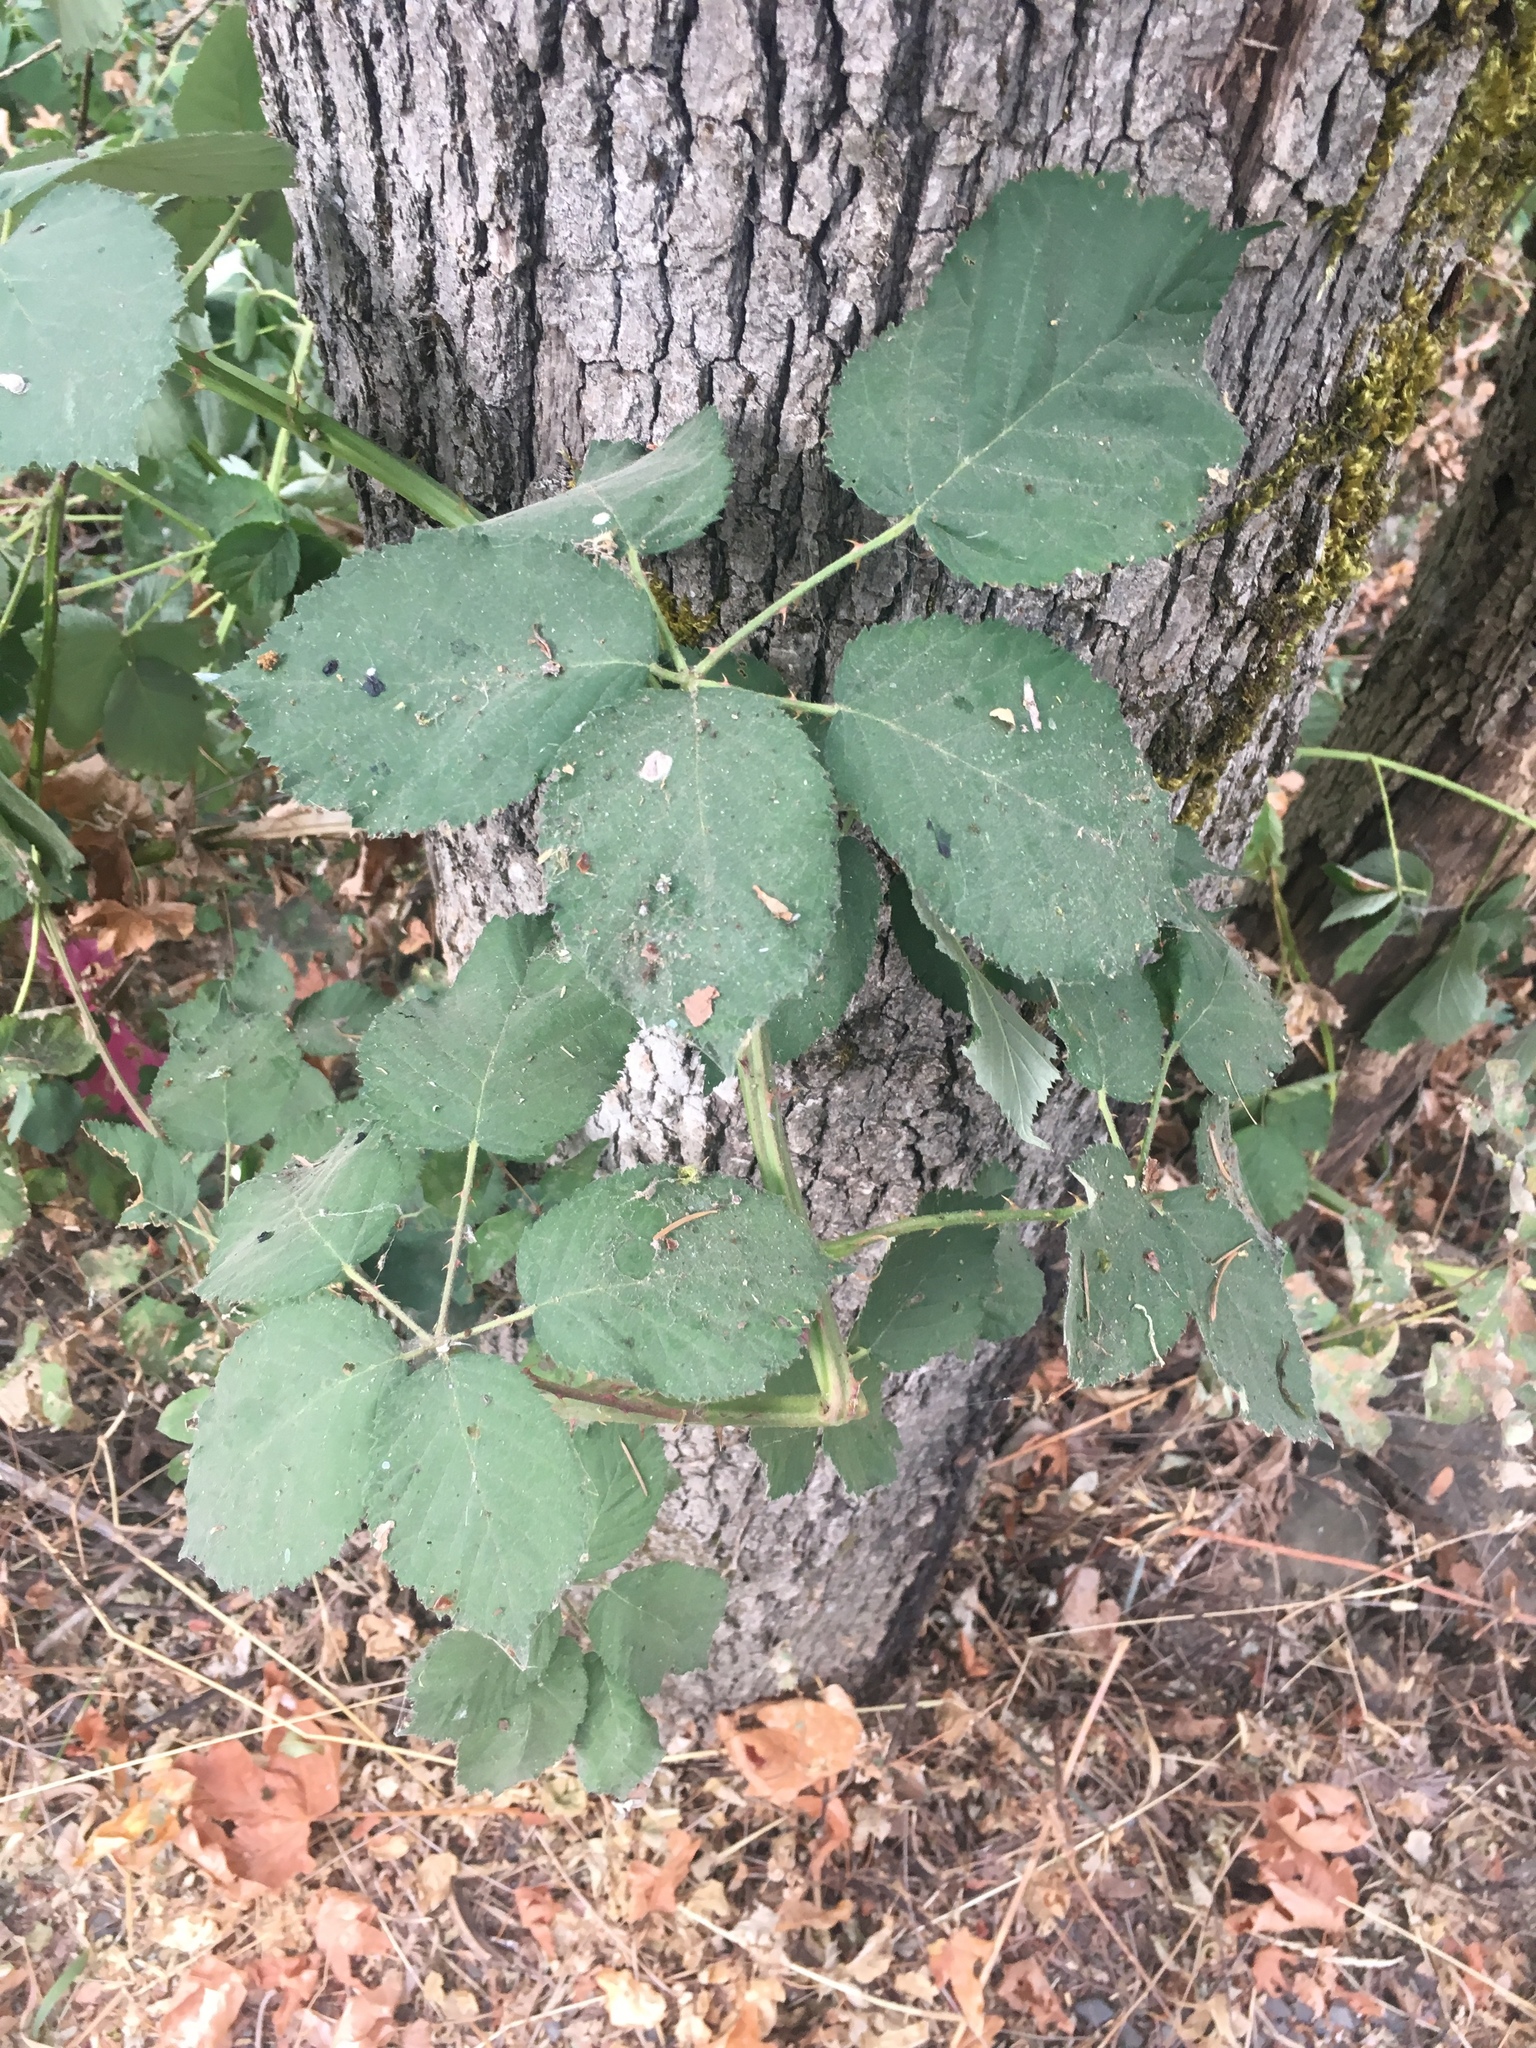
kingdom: Plantae
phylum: Tracheophyta
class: Magnoliopsida
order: Rosales
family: Rosaceae
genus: Rubus
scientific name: Rubus armeniacus
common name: Himalayan blackberry
